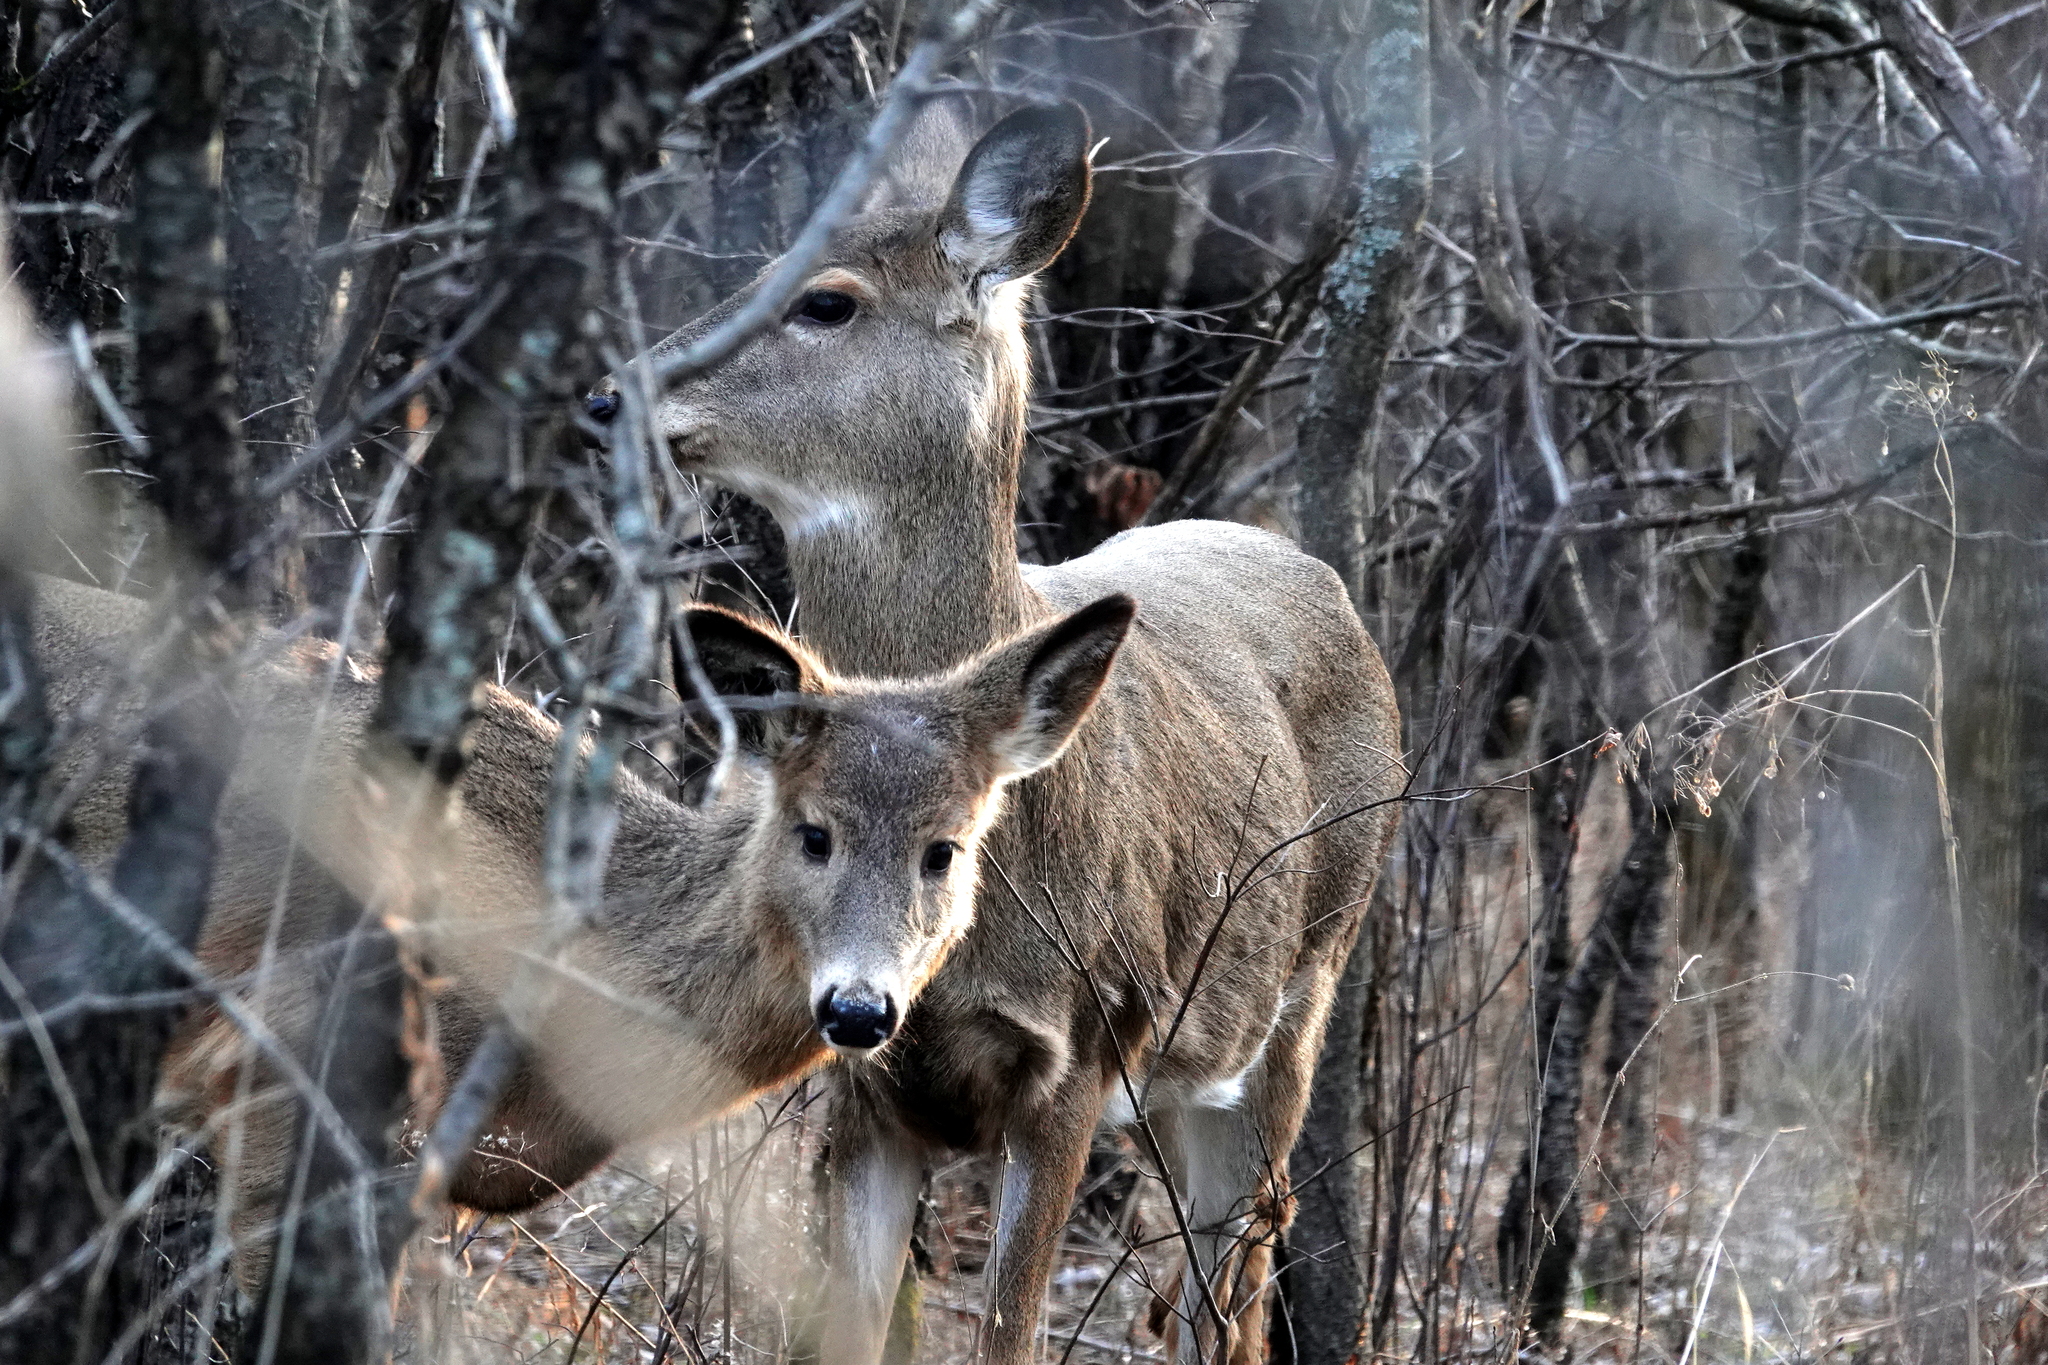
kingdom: Animalia
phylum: Chordata
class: Mammalia
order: Artiodactyla
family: Cervidae
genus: Odocoileus
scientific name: Odocoileus virginianus
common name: White-tailed deer
